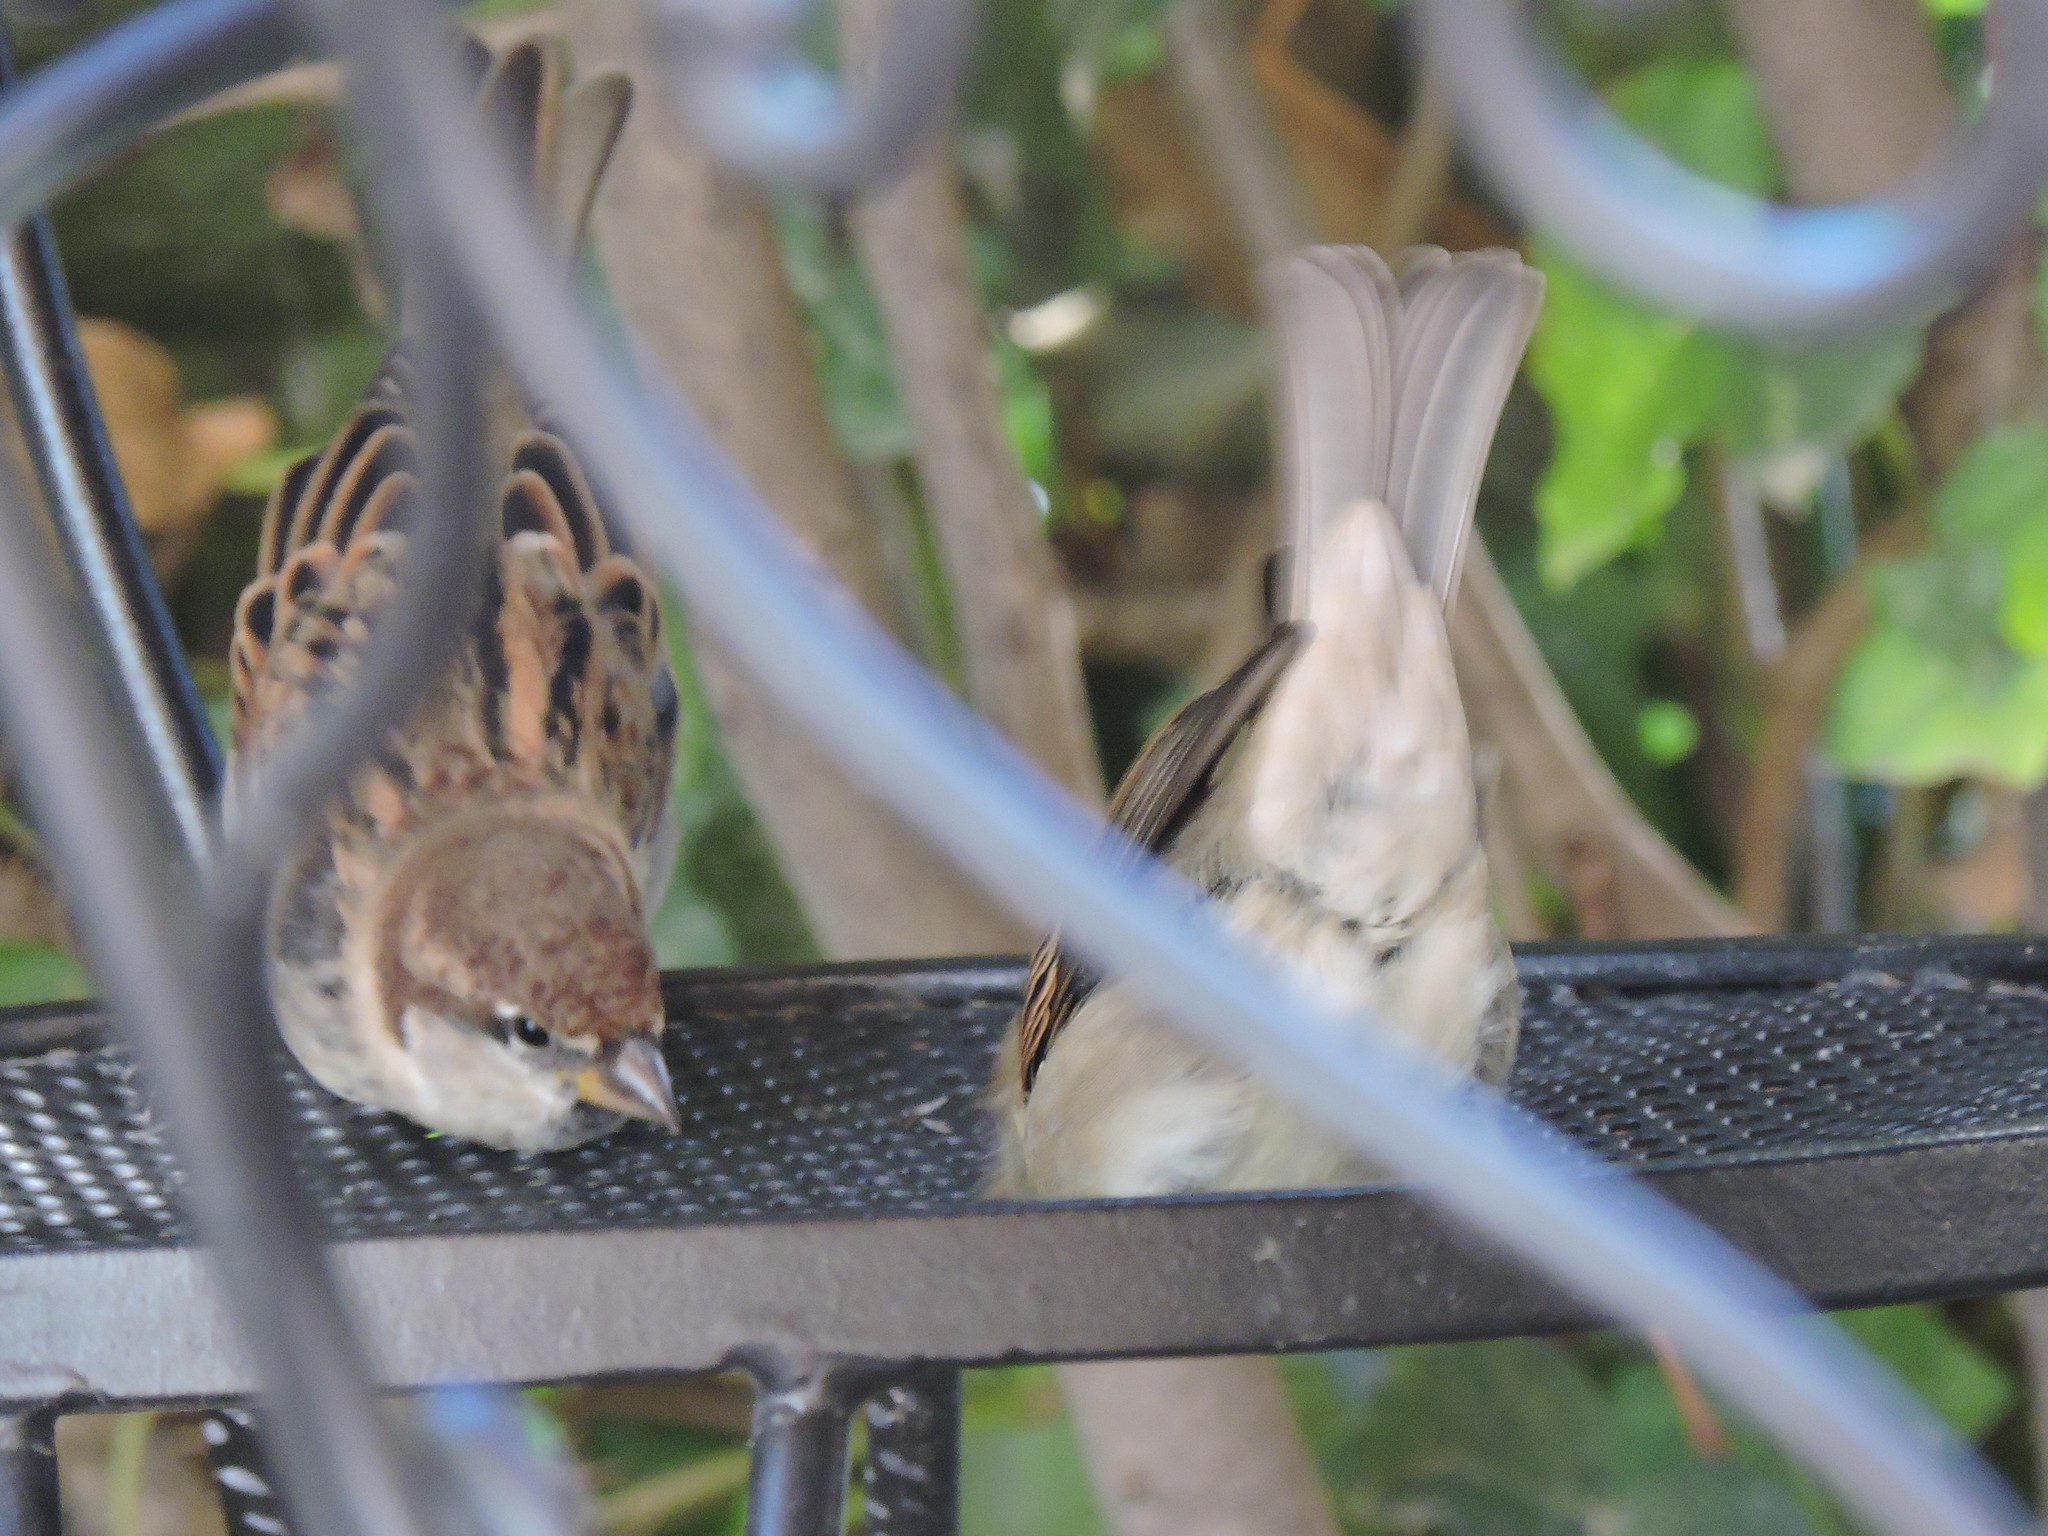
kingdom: Animalia
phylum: Chordata
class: Aves
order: Passeriformes
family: Passeridae
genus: Passer
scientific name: Passer italiae
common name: Italian sparrow
